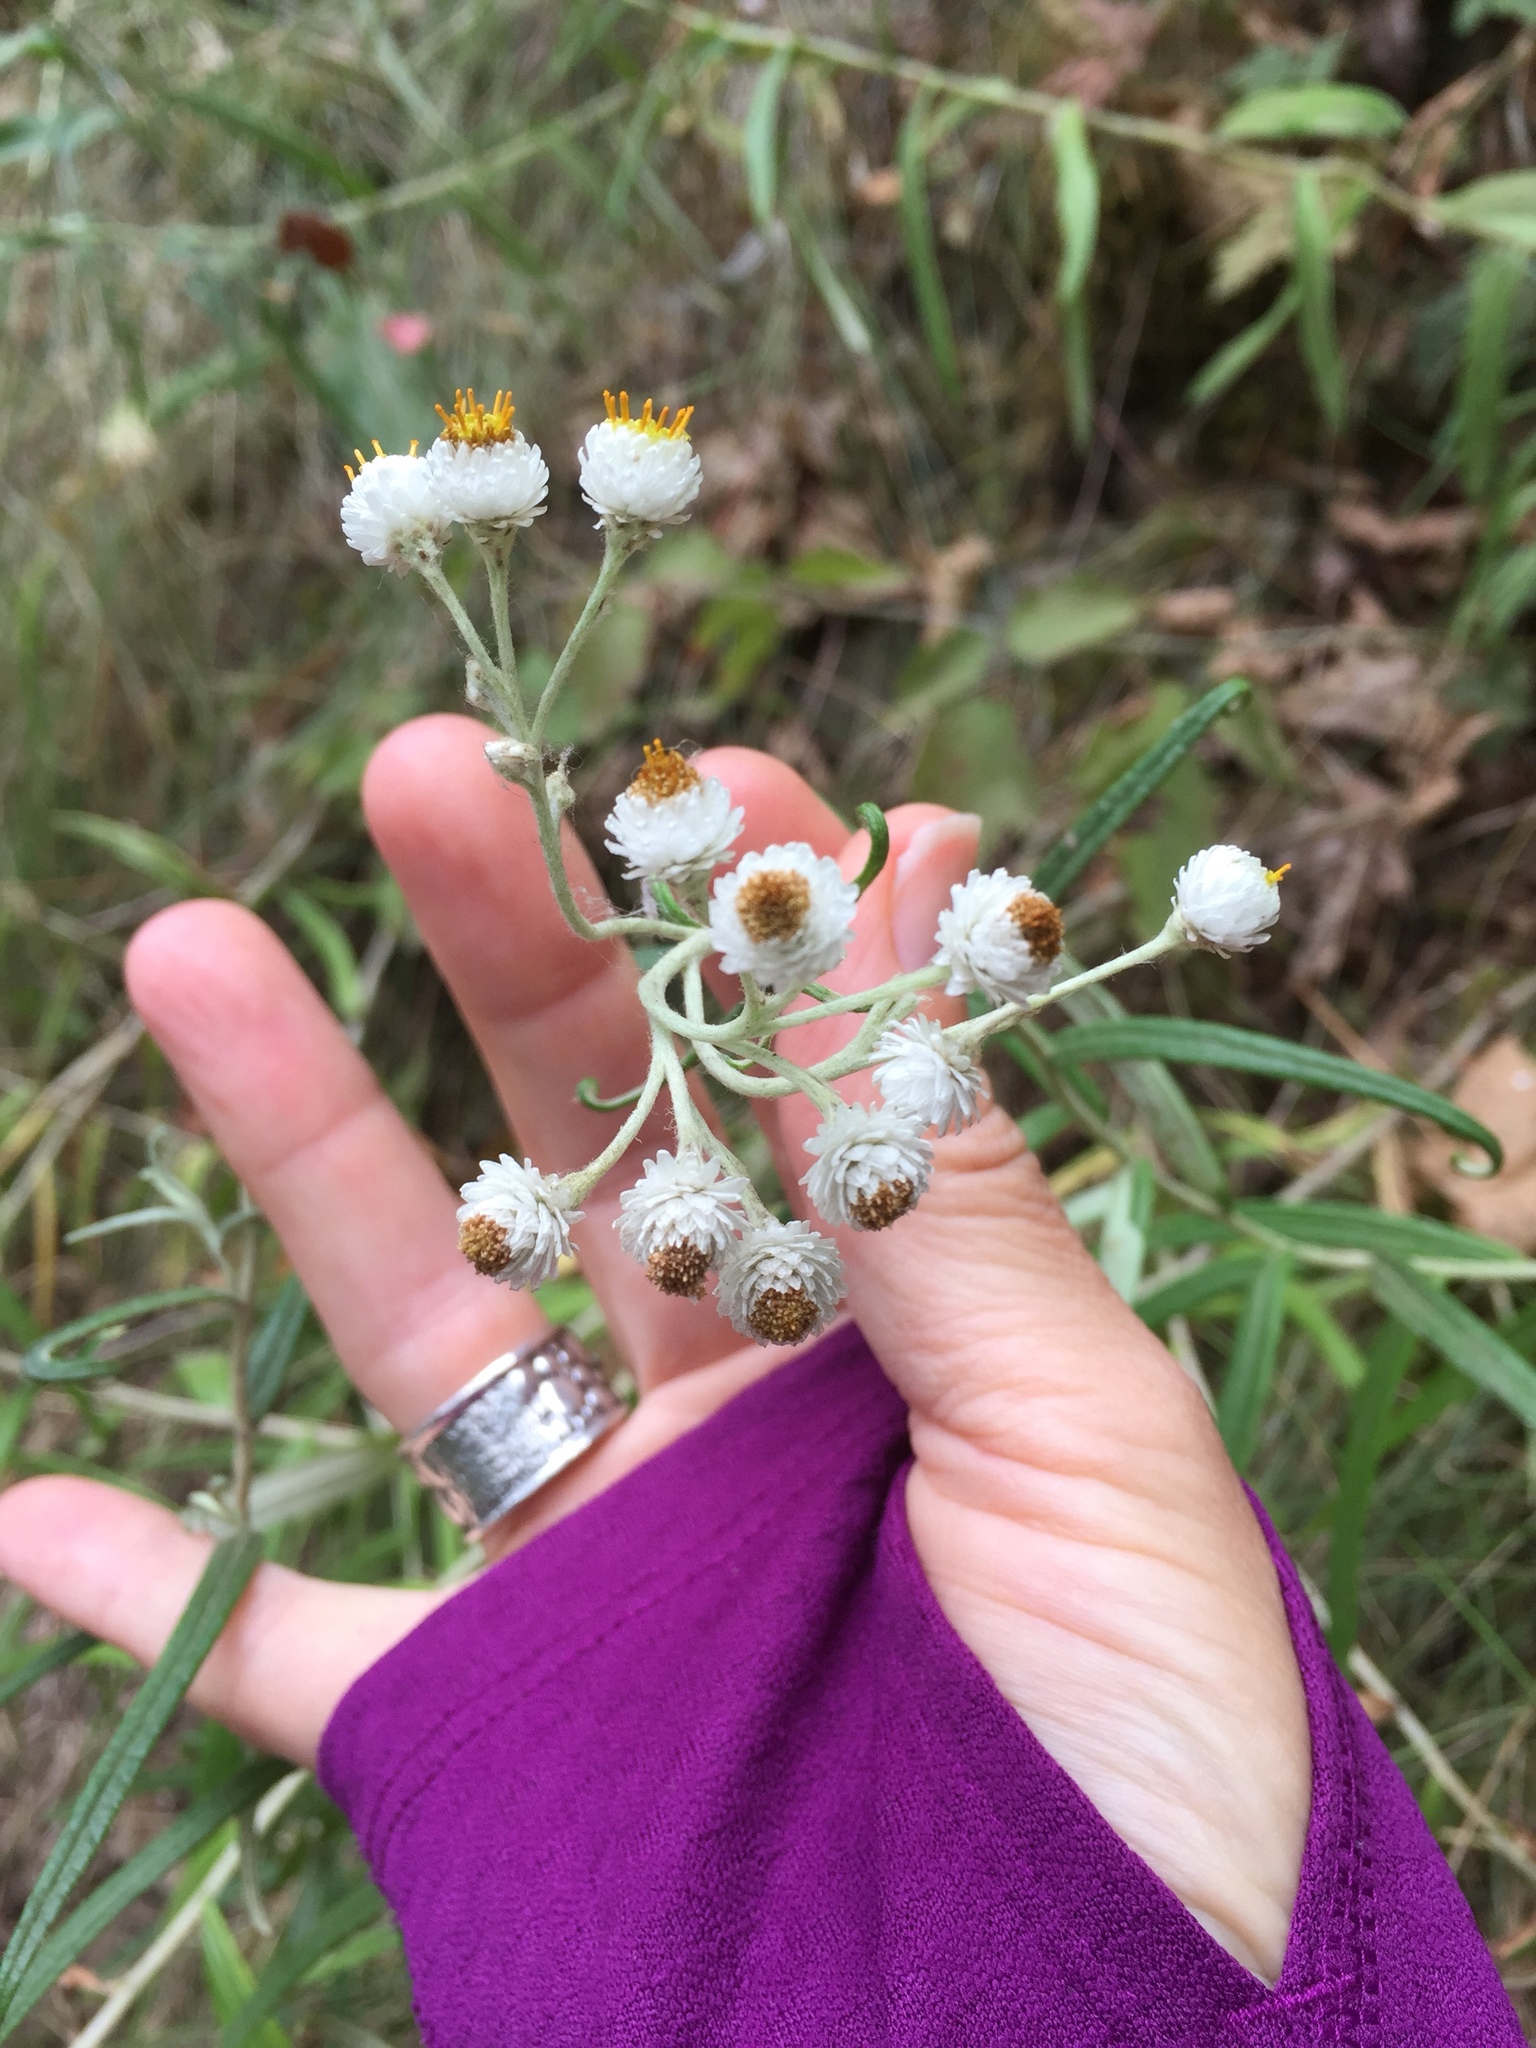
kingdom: Plantae
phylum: Tracheophyta
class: Magnoliopsida
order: Asterales
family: Asteraceae
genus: Anaphalis
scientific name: Anaphalis margaritacea
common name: Pearly everlasting
